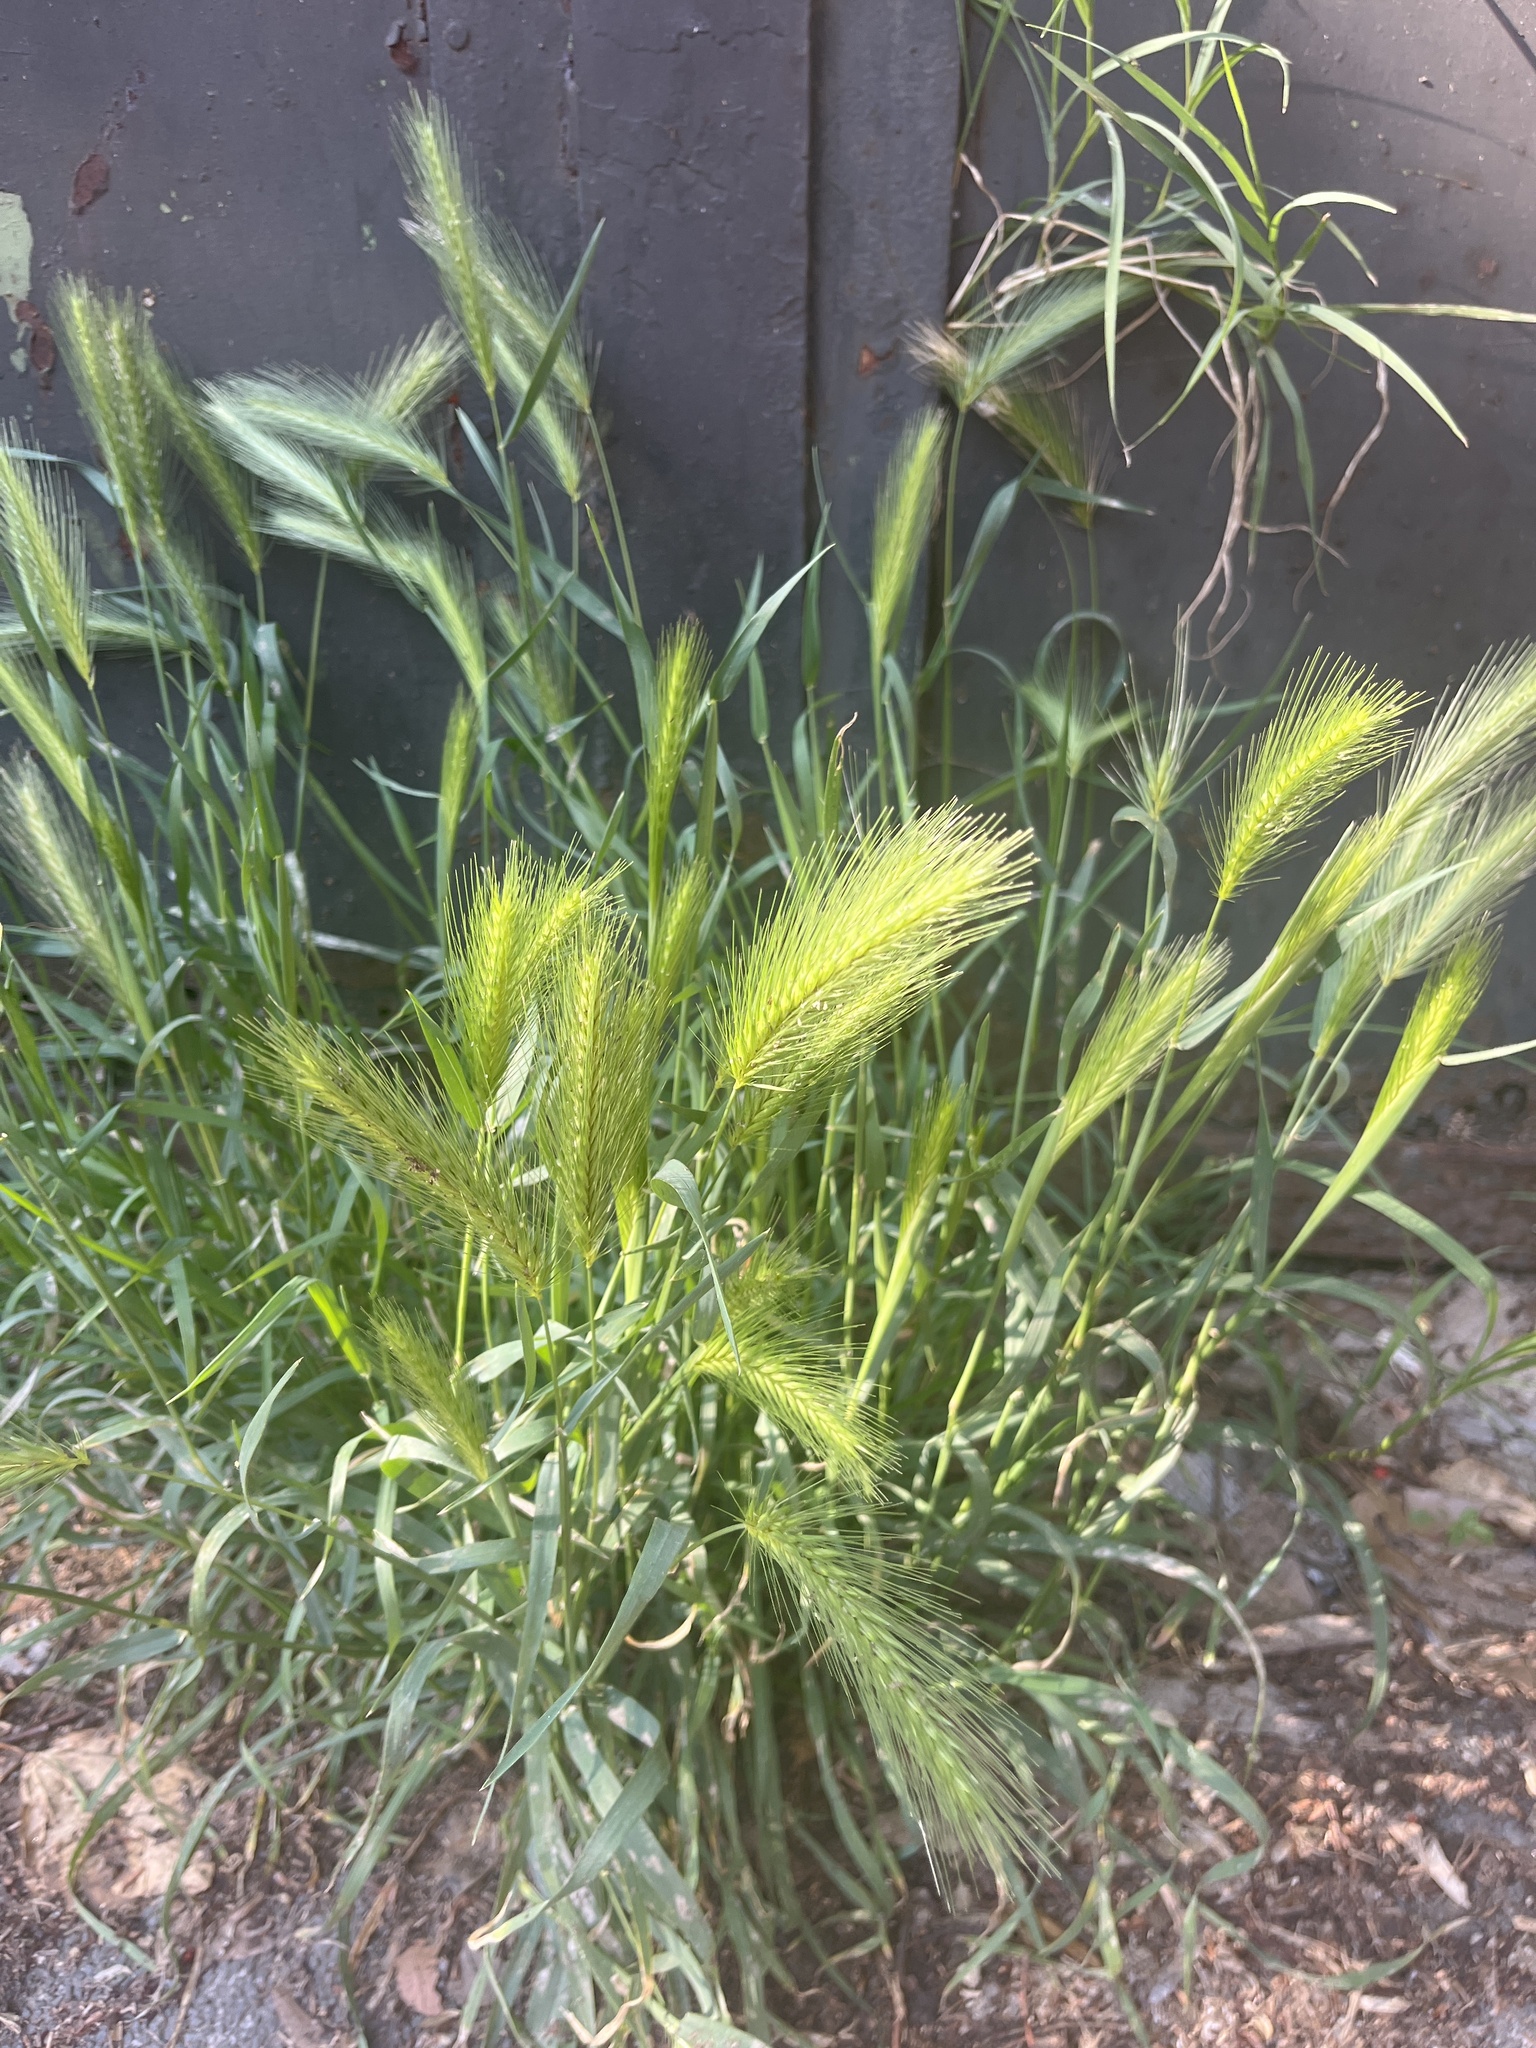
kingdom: Plantae
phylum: Tracheophyta
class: Liliopsida
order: Poales
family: Poaceae
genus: Hordeum
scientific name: Hordeum murinum
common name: Wall barley
